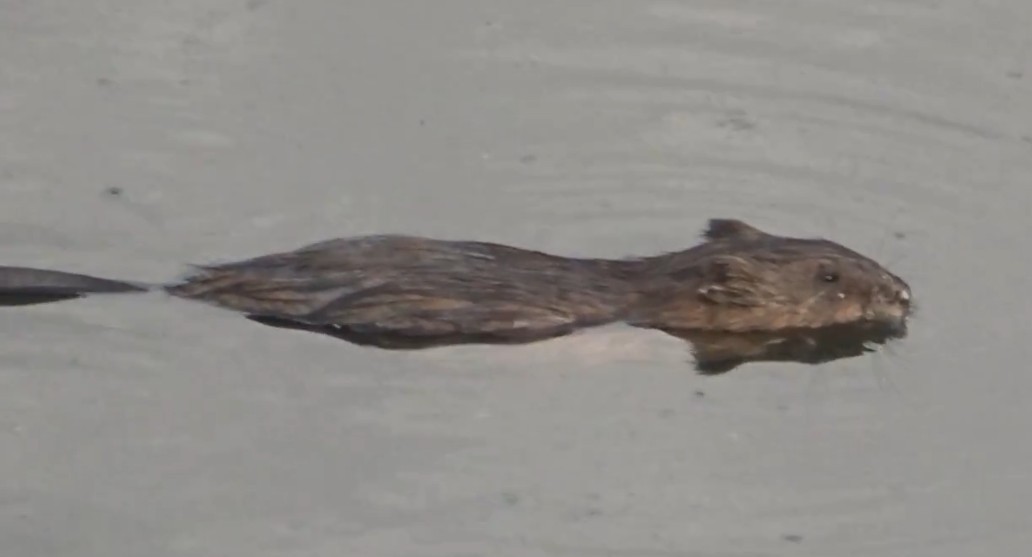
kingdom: Animalia
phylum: Chordata
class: Mammalia
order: Rodentia
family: Cricetidae
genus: Ondatra
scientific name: Ondatra zibethicus
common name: Muskrat
